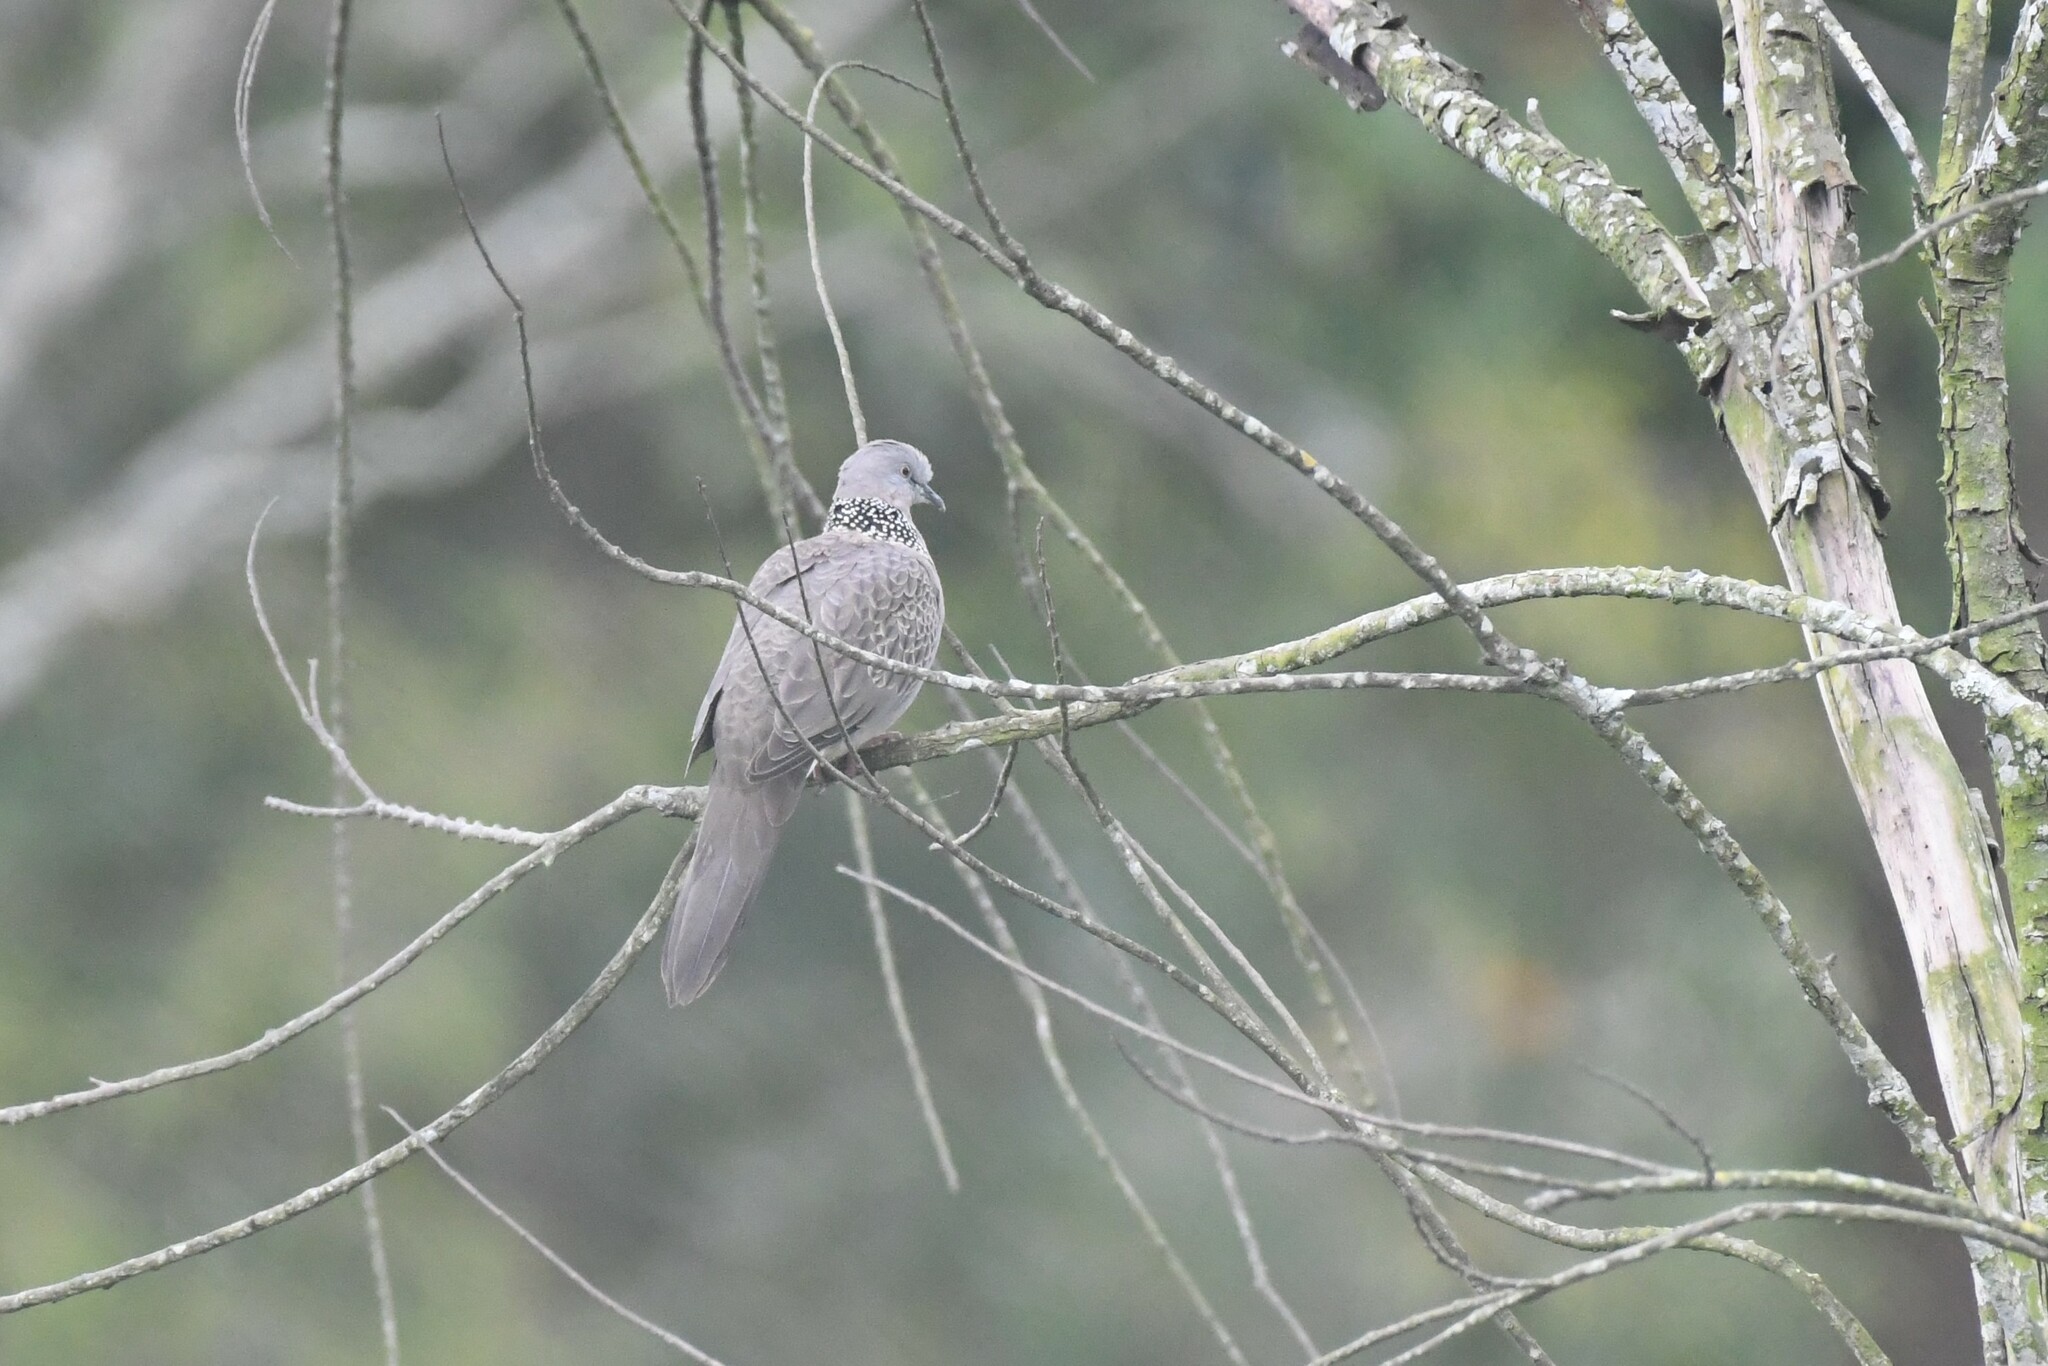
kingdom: Animalia
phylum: Chordata
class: Aves
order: Columbiformes
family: Columbidae
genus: Spilopelia
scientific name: Spilopelia chinensis
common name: Spotted dove
